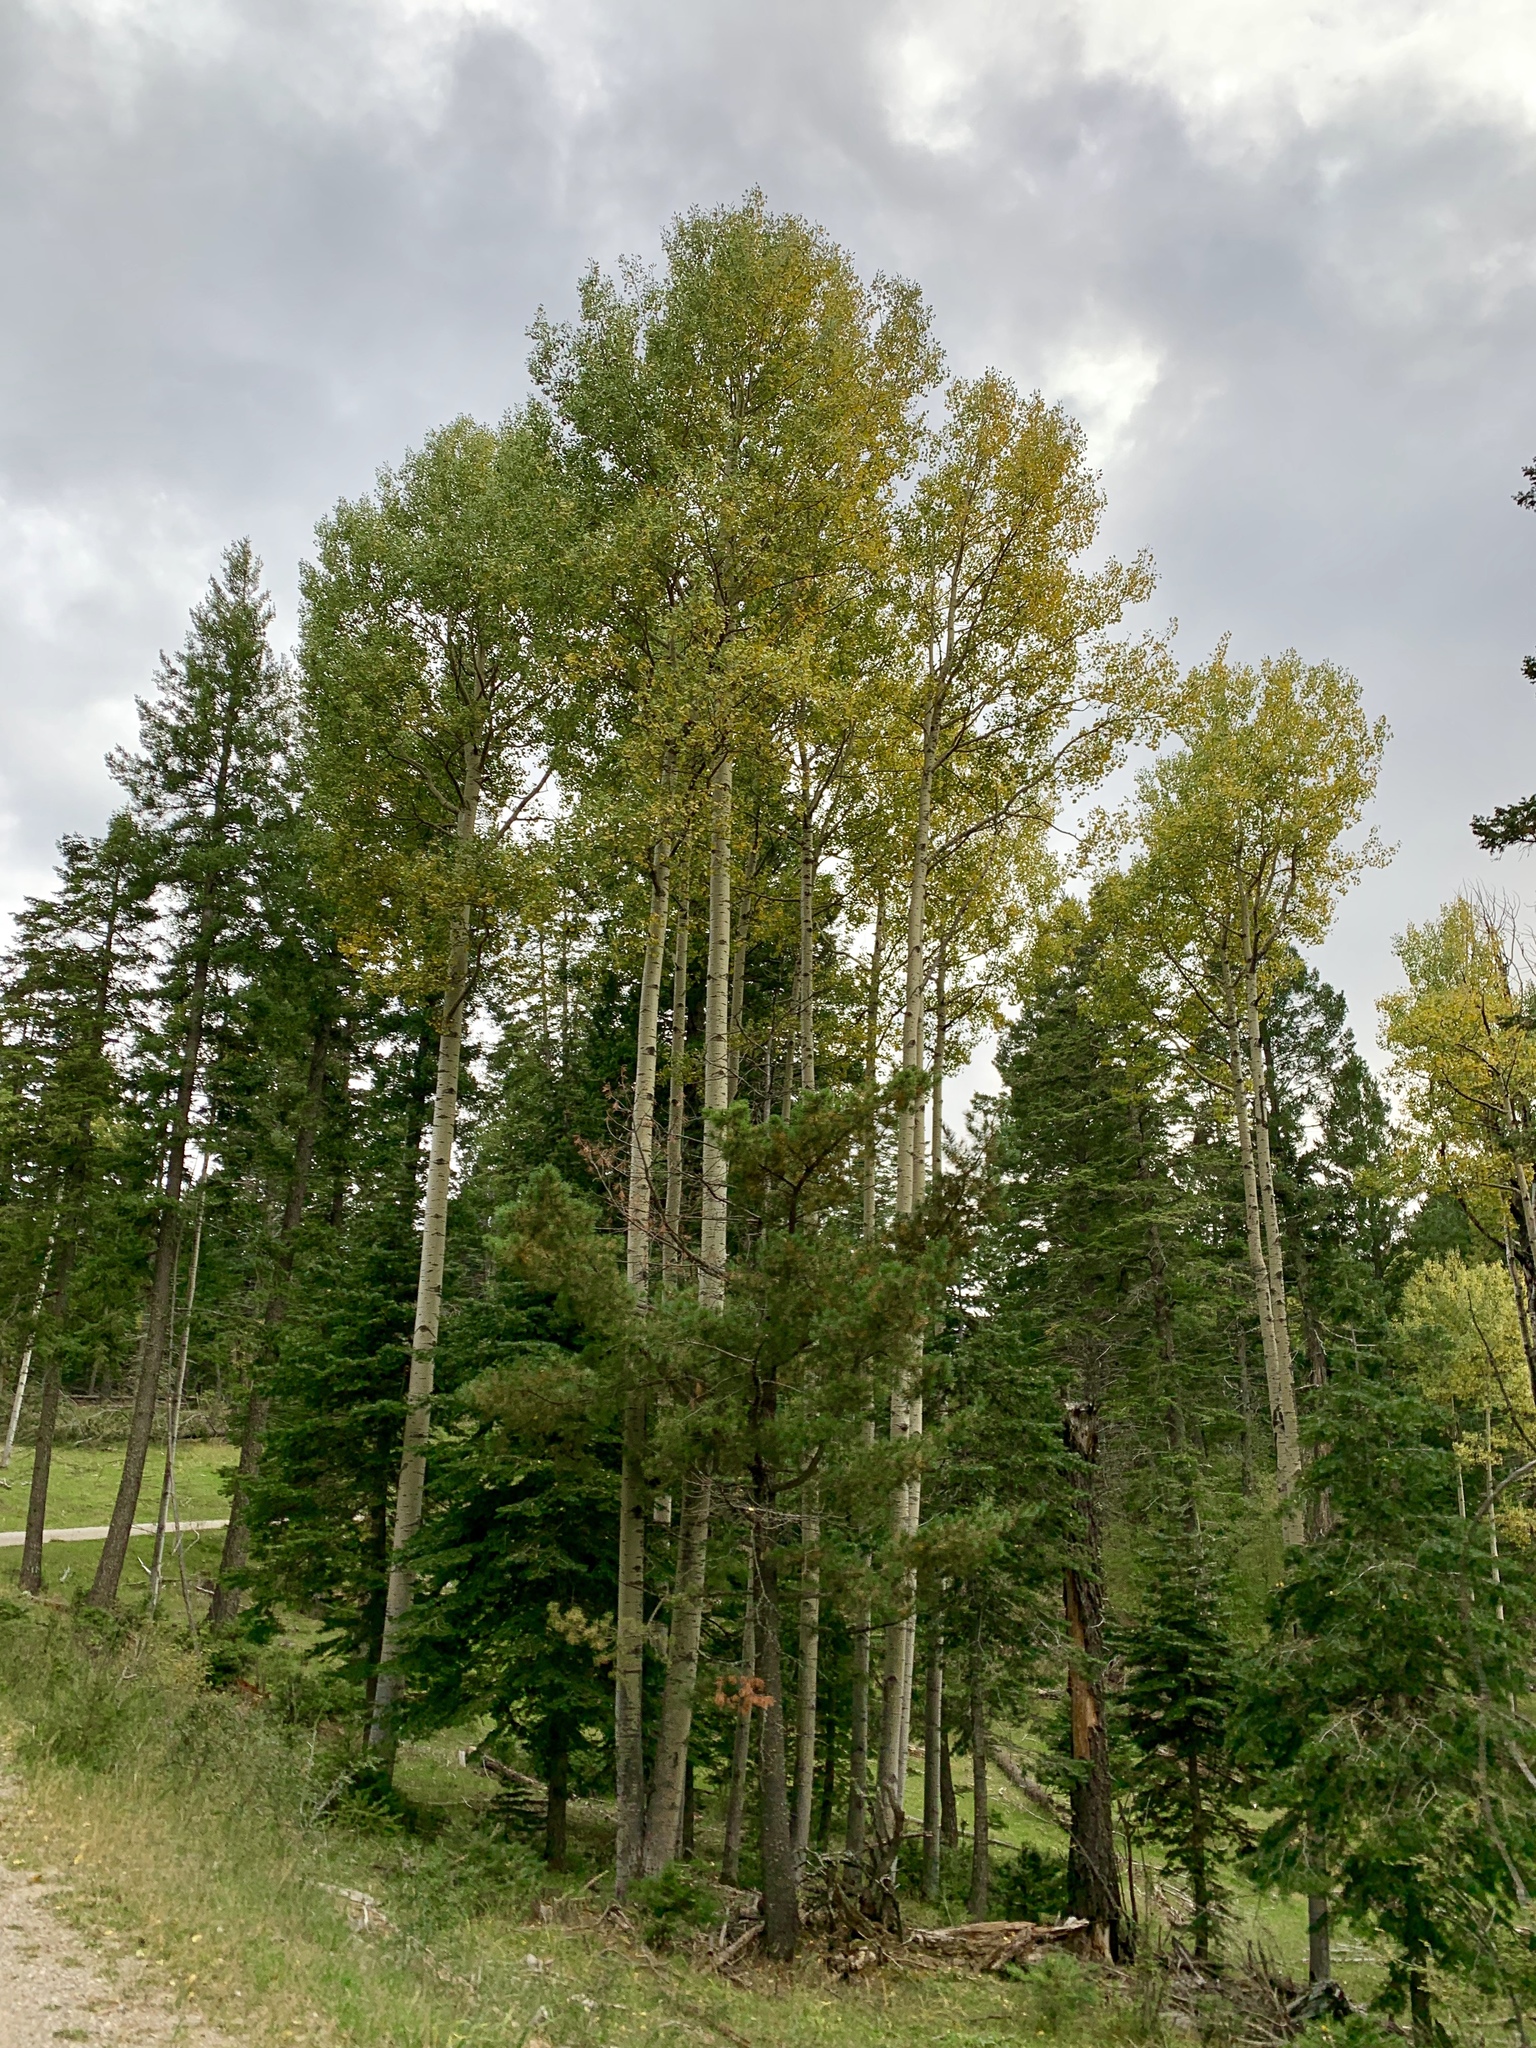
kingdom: Plantae
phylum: Tracheophyta
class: Magnoliopsida
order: Malpighiales
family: Salicaceae
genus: Populus
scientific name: Populus tremuloides
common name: Quaking aspen
